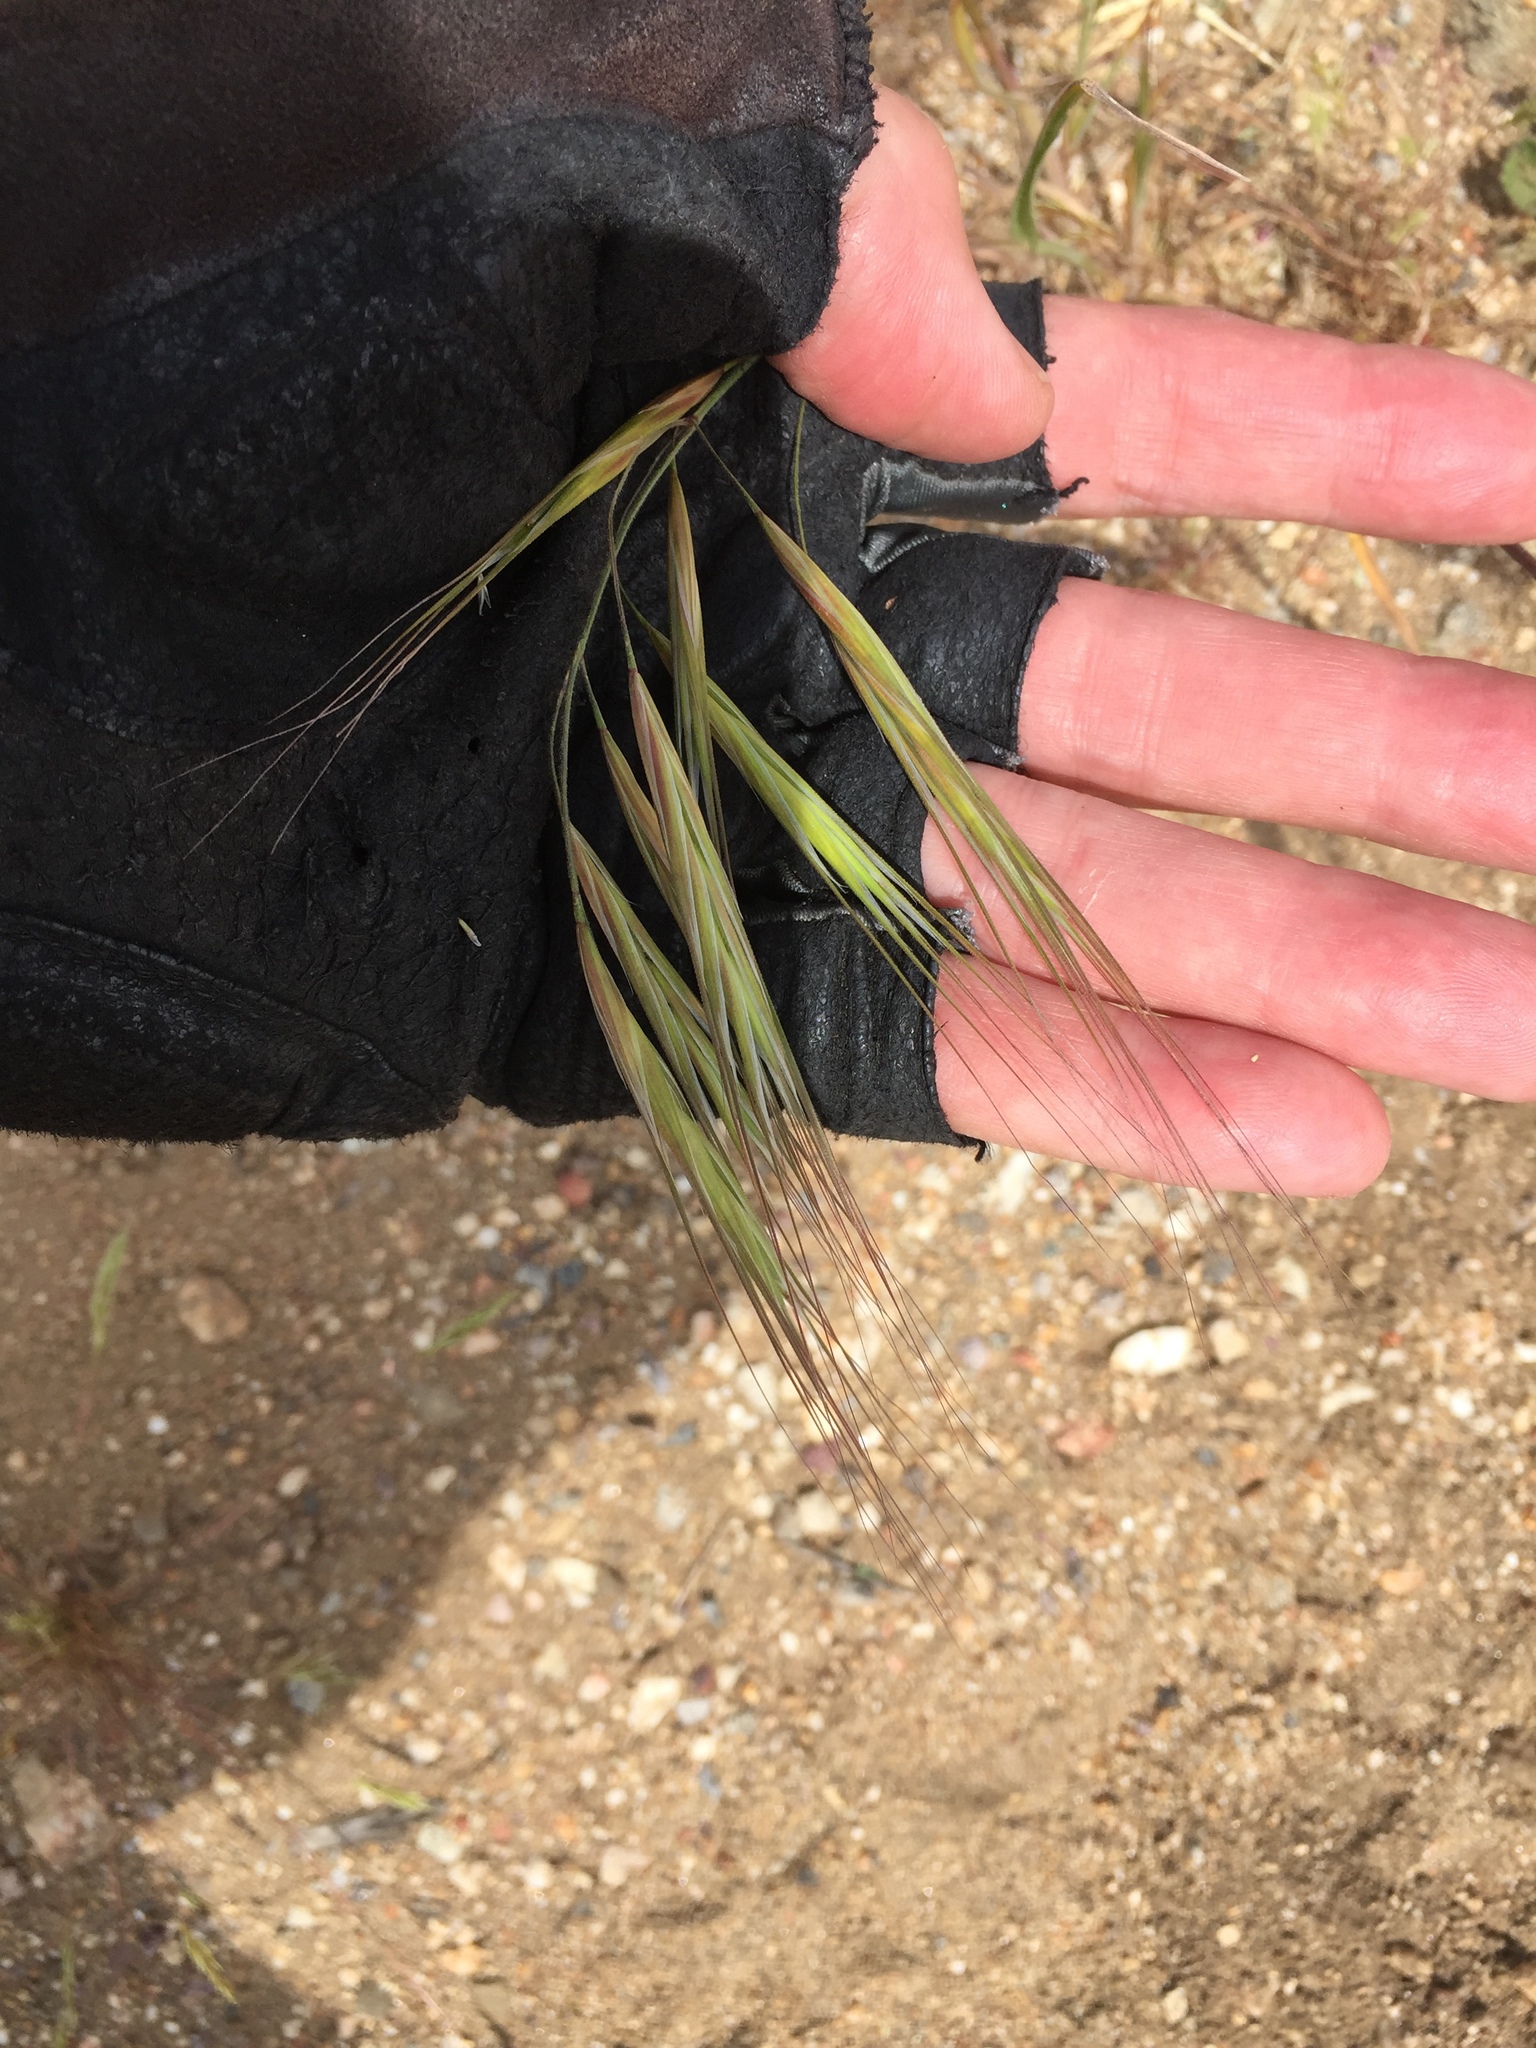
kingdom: Plantae
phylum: Tracheophyta
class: Liliopsida
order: Poales
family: Poaceae
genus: Bromus
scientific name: Bromus diandrus
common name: Ripgut brome
